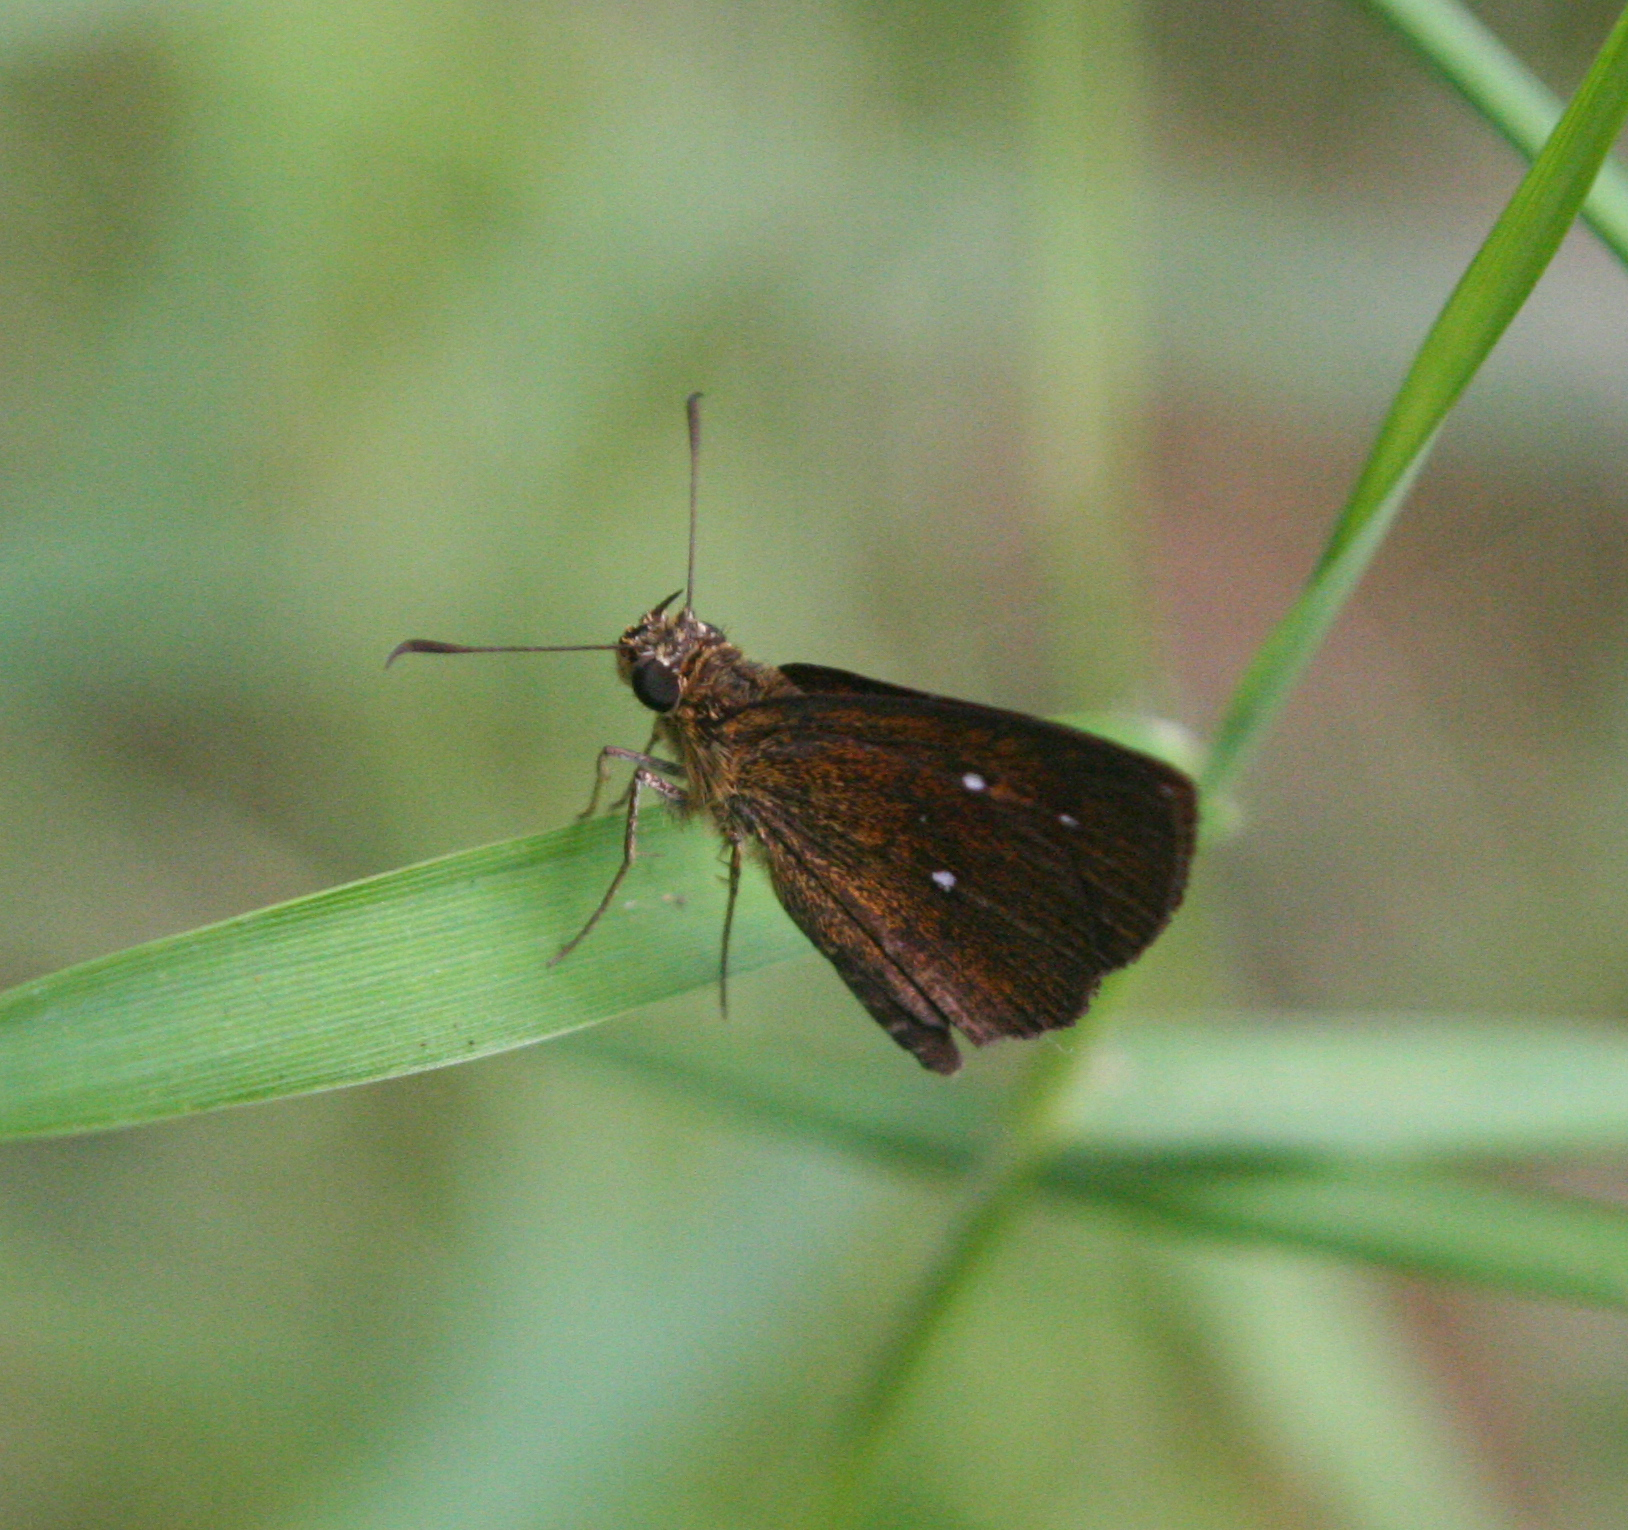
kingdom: Animalia
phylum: Arthropoda
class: Insecta
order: Lepidoptera
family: Hesperiidae
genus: Iambrix
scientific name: Iambrix salsala
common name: Chestnut bob
